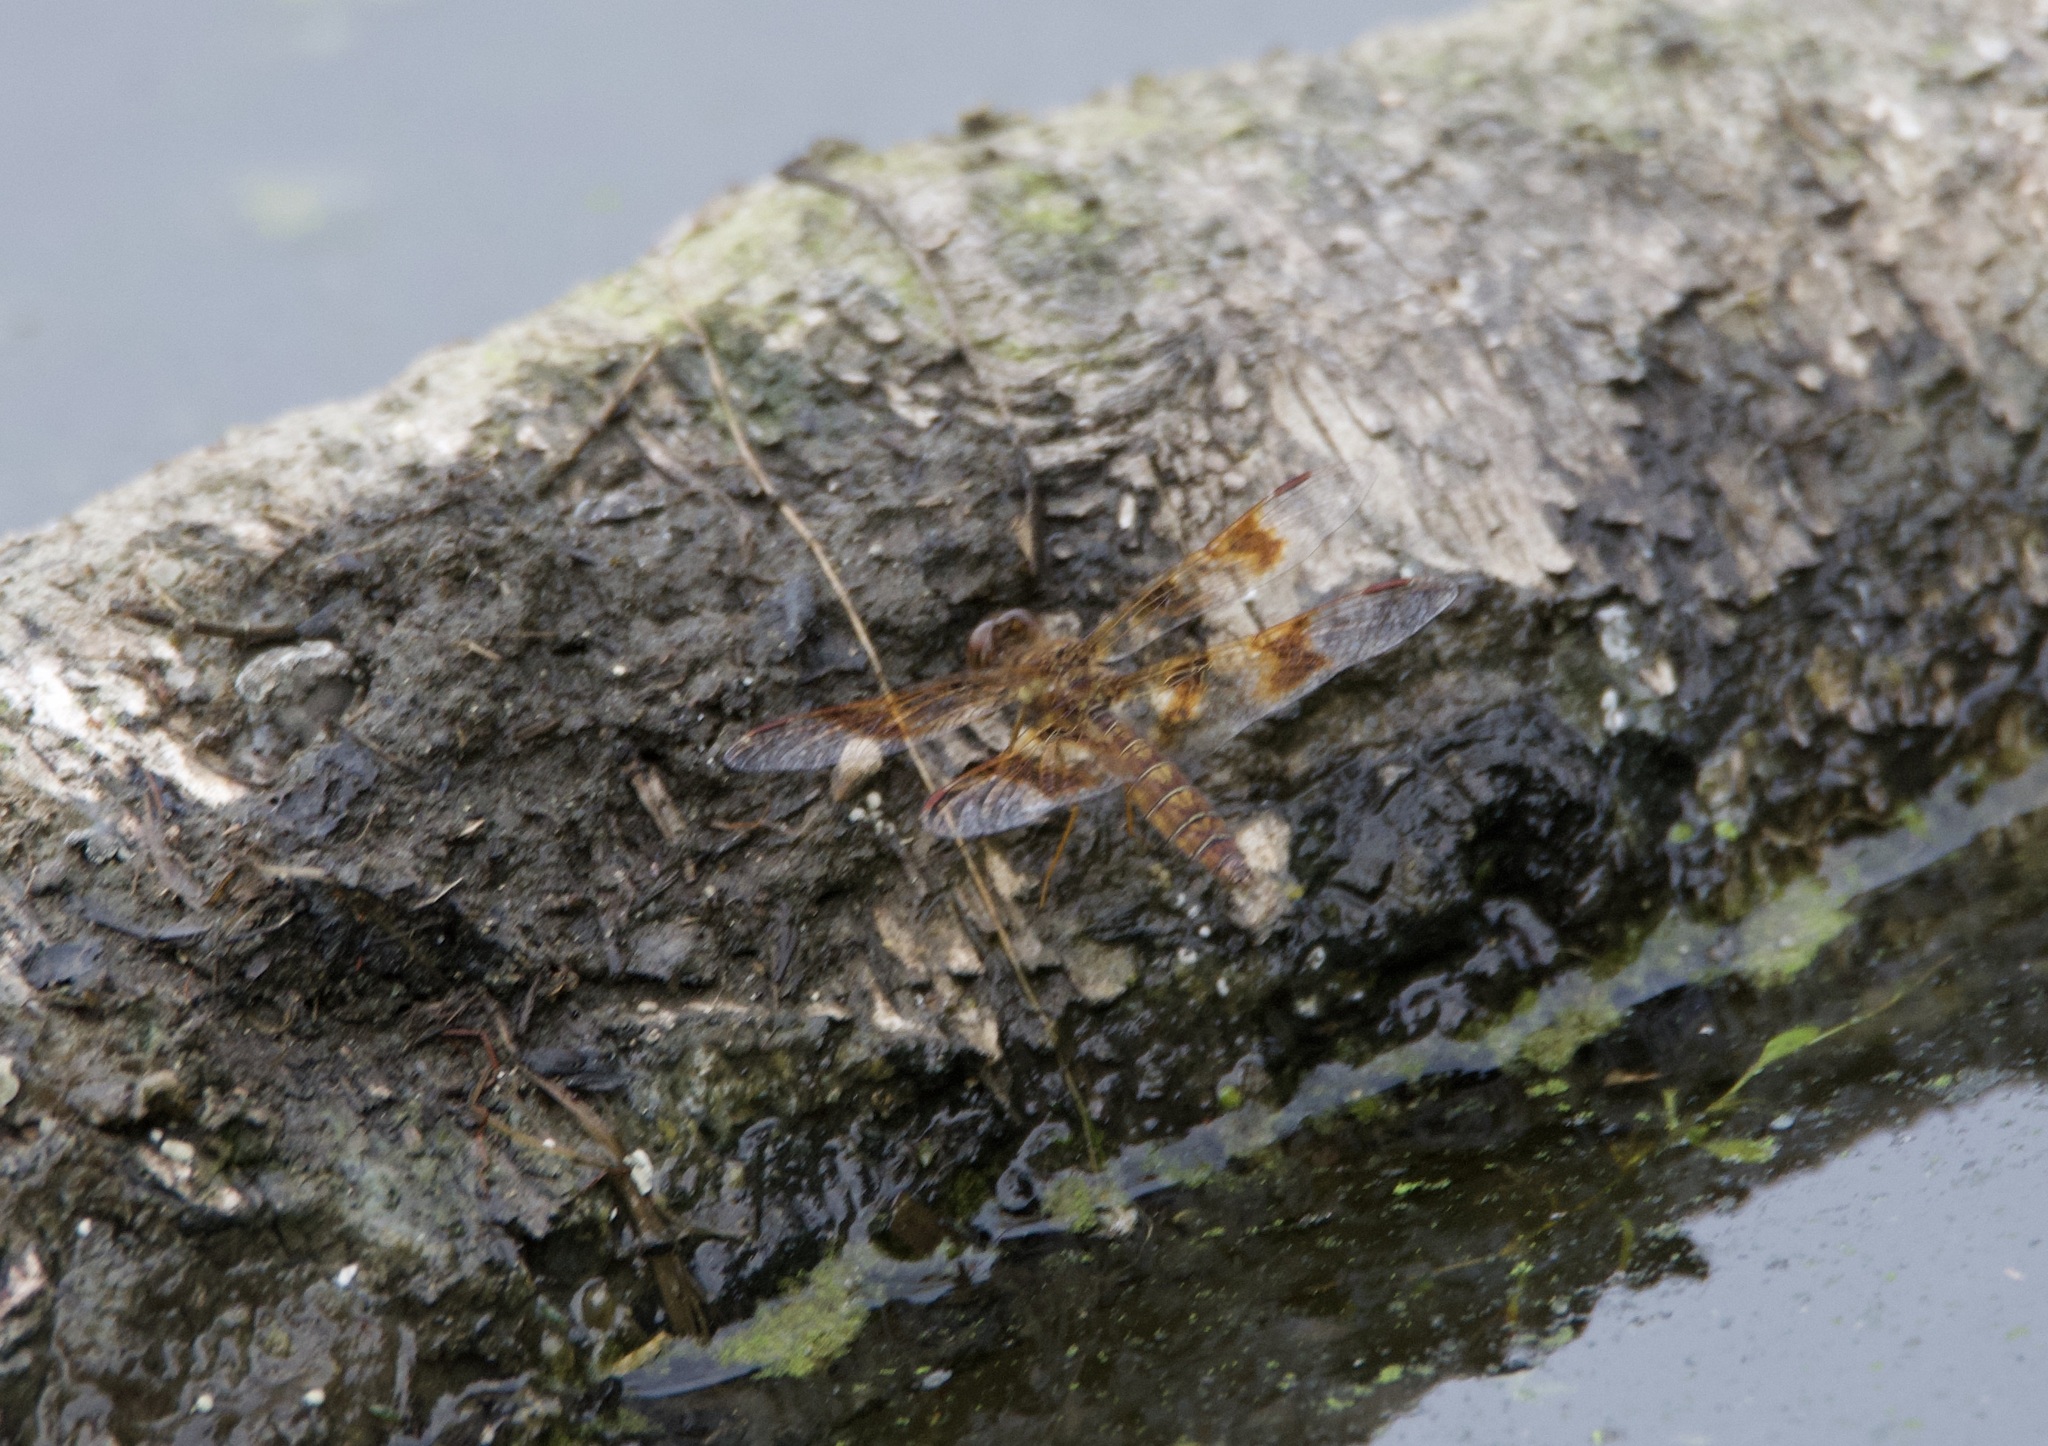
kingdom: Animalia
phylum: Arthropoda
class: Insecta
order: Odonata
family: Libellulidae
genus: Perithemis
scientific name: Perithemis tenera
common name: Eastern amberwing
